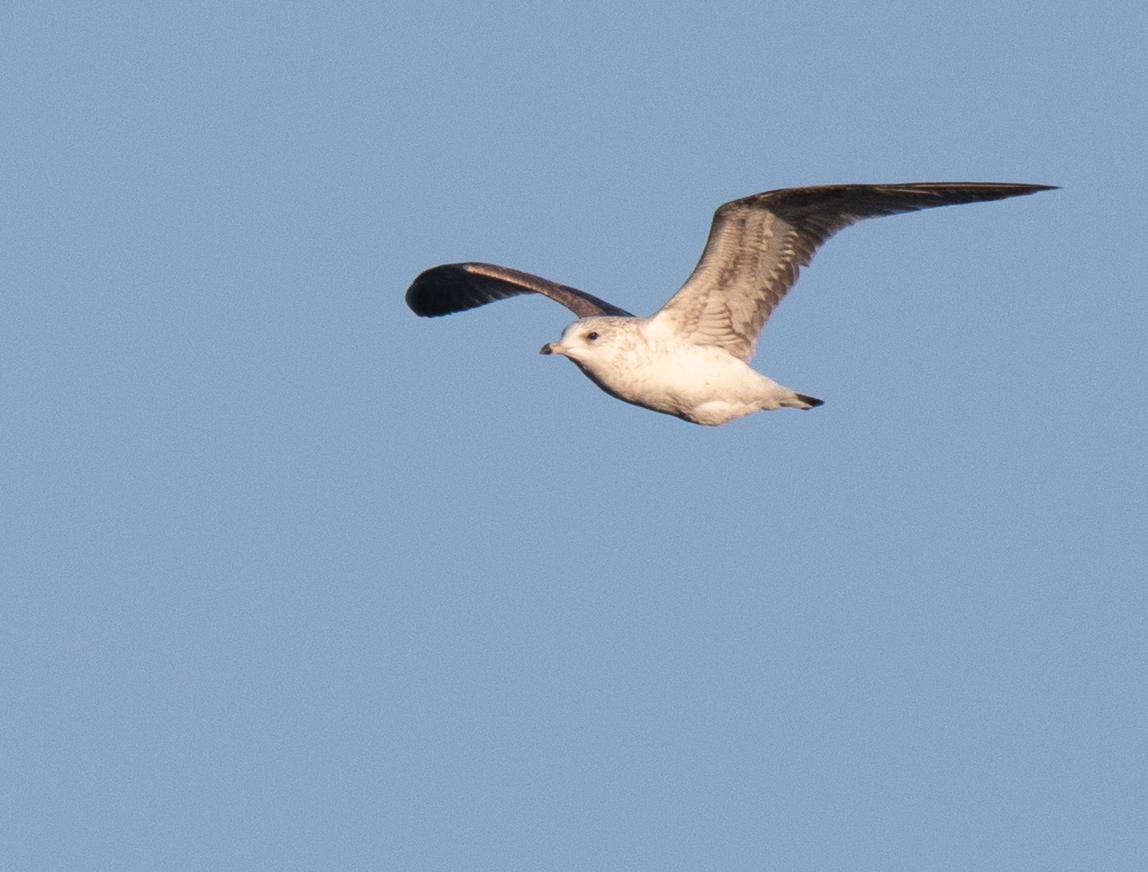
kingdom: Animalia
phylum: Chordata
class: Aves
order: Charadriiformes
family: Laridae
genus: Larus
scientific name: Larus canus
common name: Mew gull
